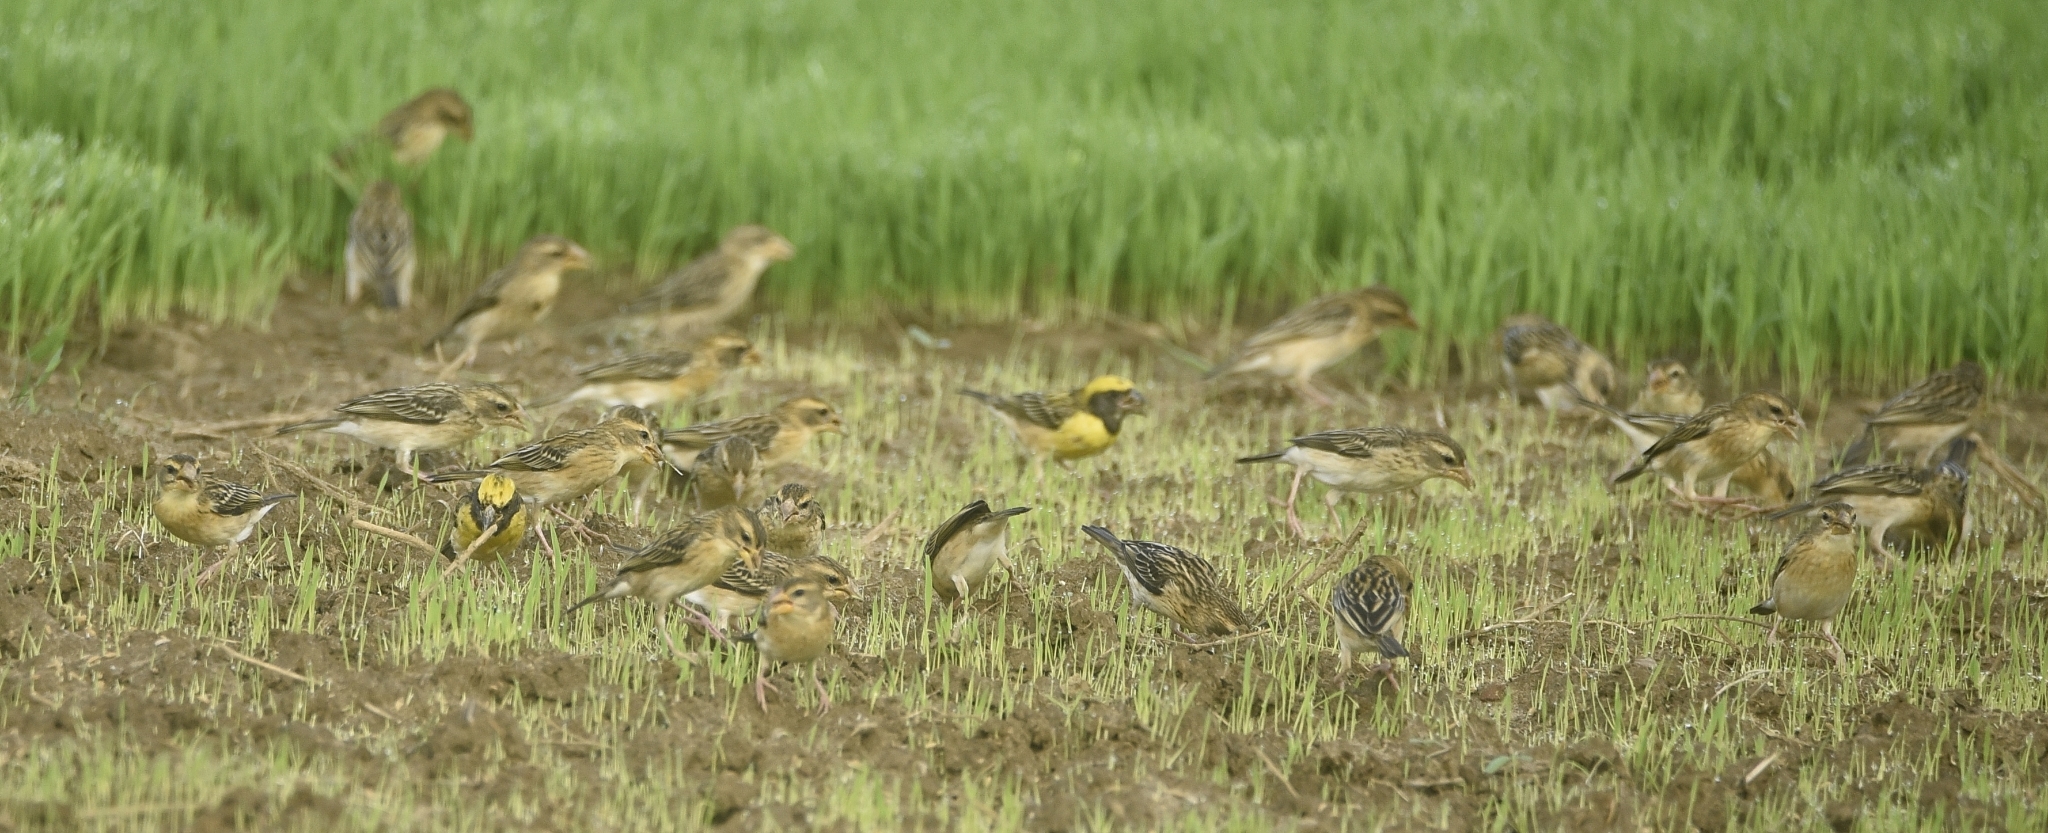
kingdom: Animalia
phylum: Chordata
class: Aves
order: Passeriformes
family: Ploceidae
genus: Ploceus
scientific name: Ploceus philippinus
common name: Baya weaver
